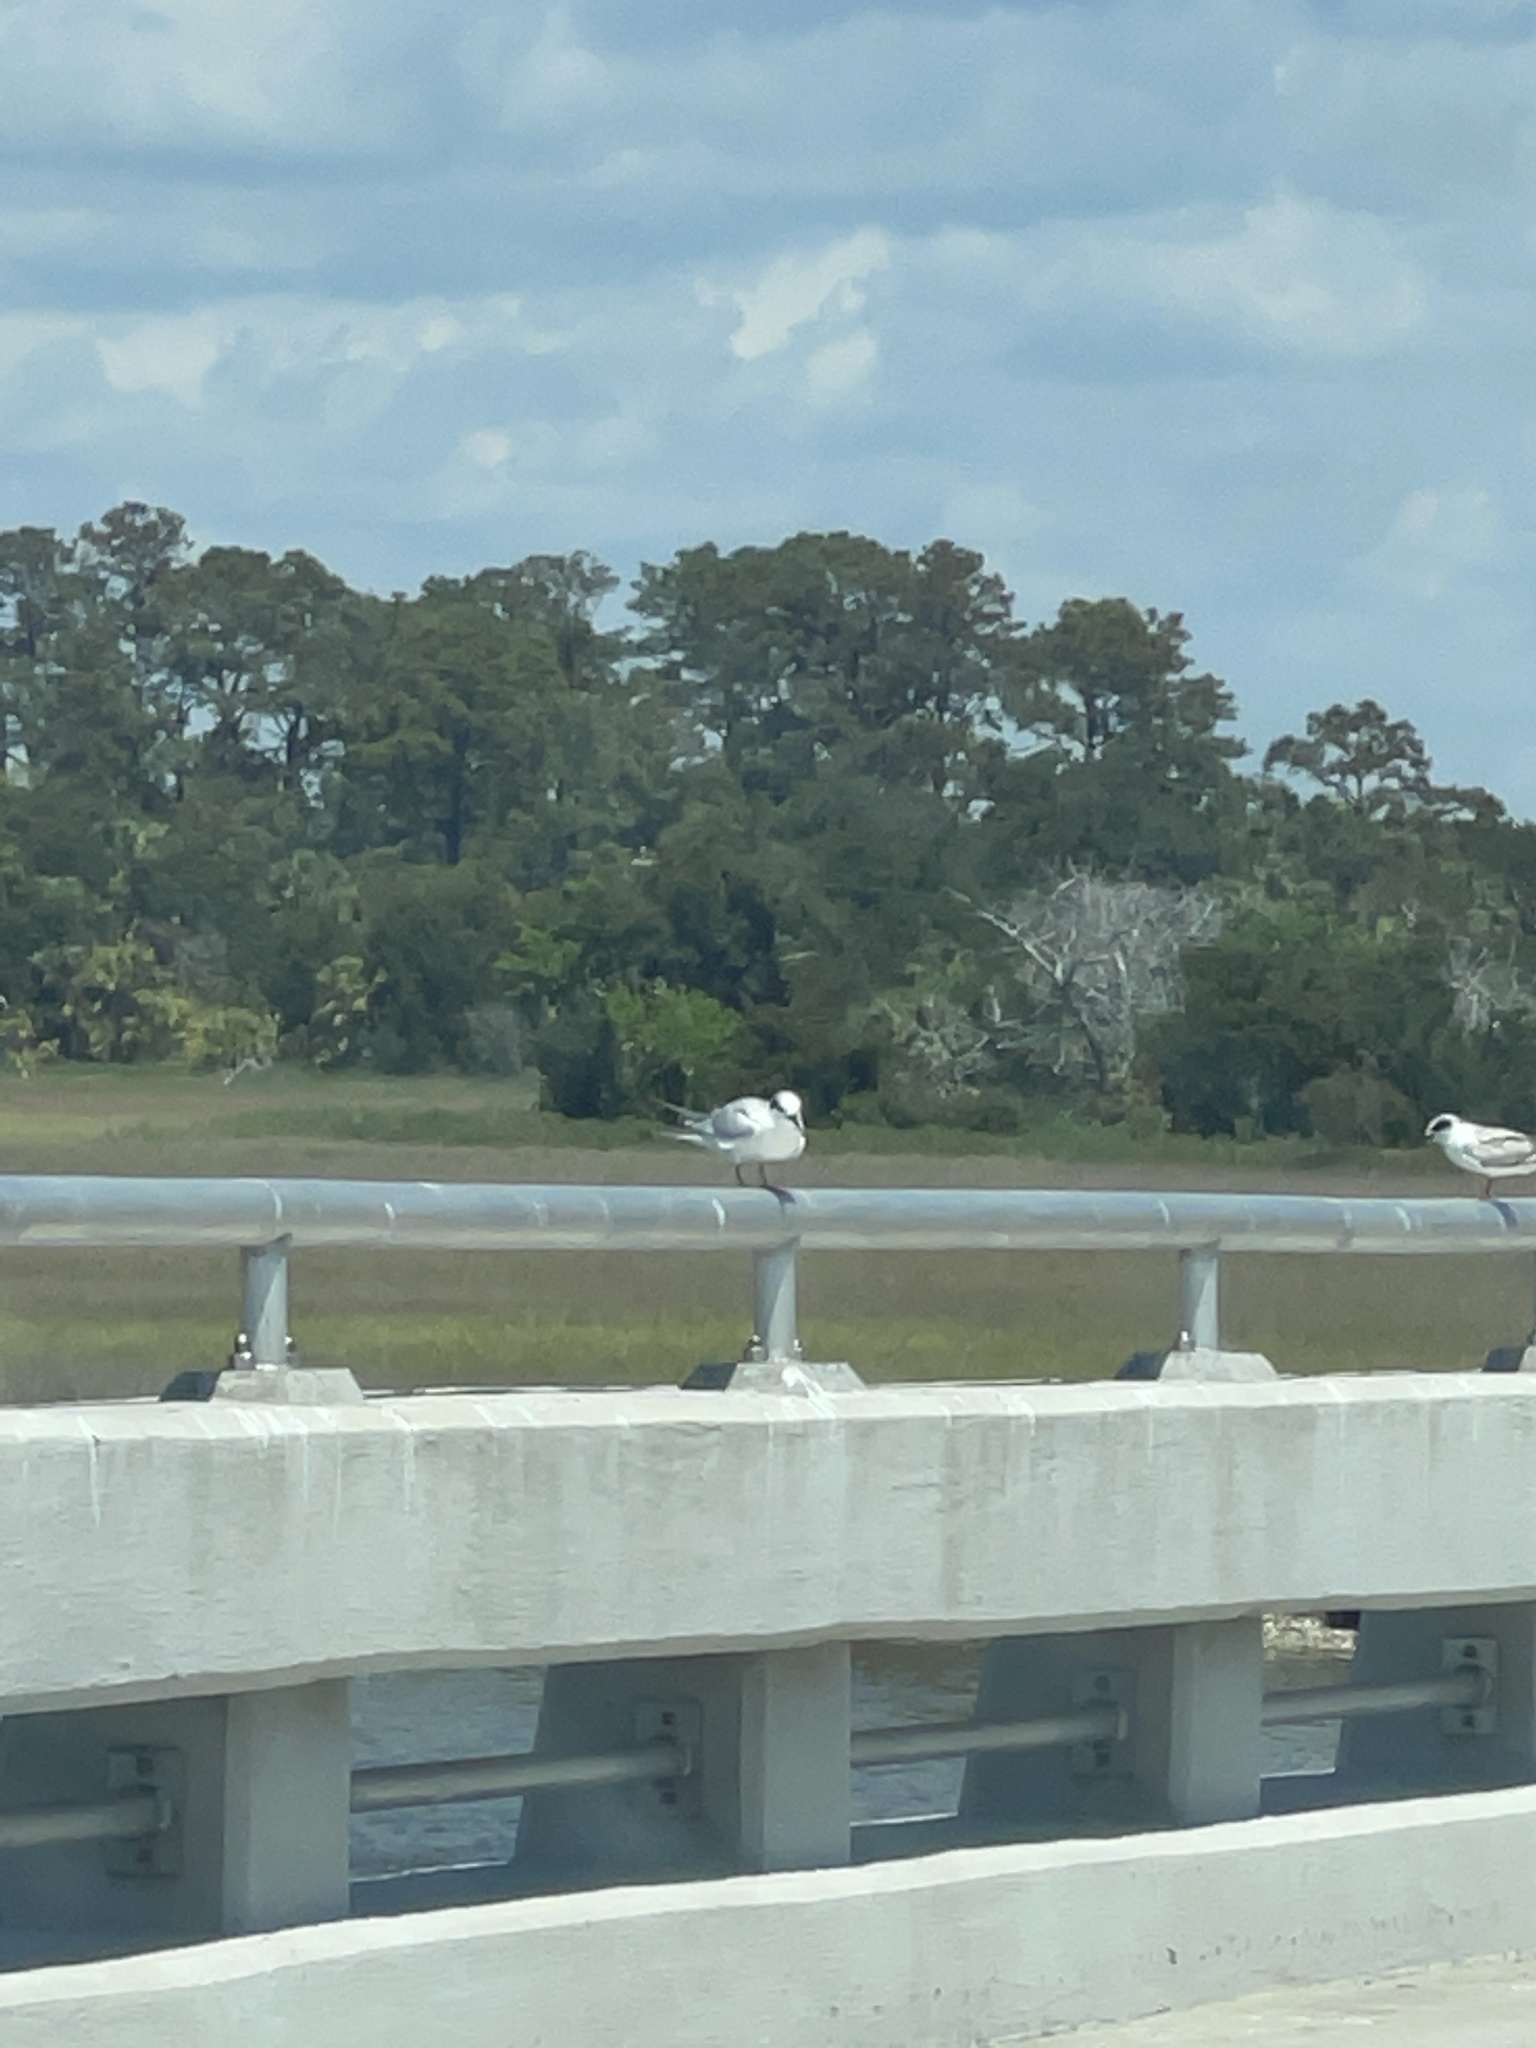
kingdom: Animalia
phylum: Chordata
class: Aves
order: Charadriiformes
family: Laridae
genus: Sterna
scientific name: Sterna forsteri
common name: Forster's tern
